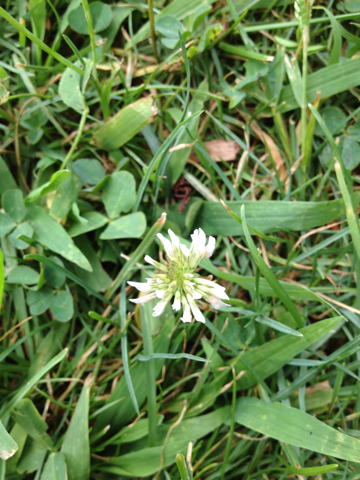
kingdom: Plantae
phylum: Tracheophyta
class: Magnoliopsida
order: Fabales
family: Fabaceae
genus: Trifolium
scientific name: Trifolium repens
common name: White clover
